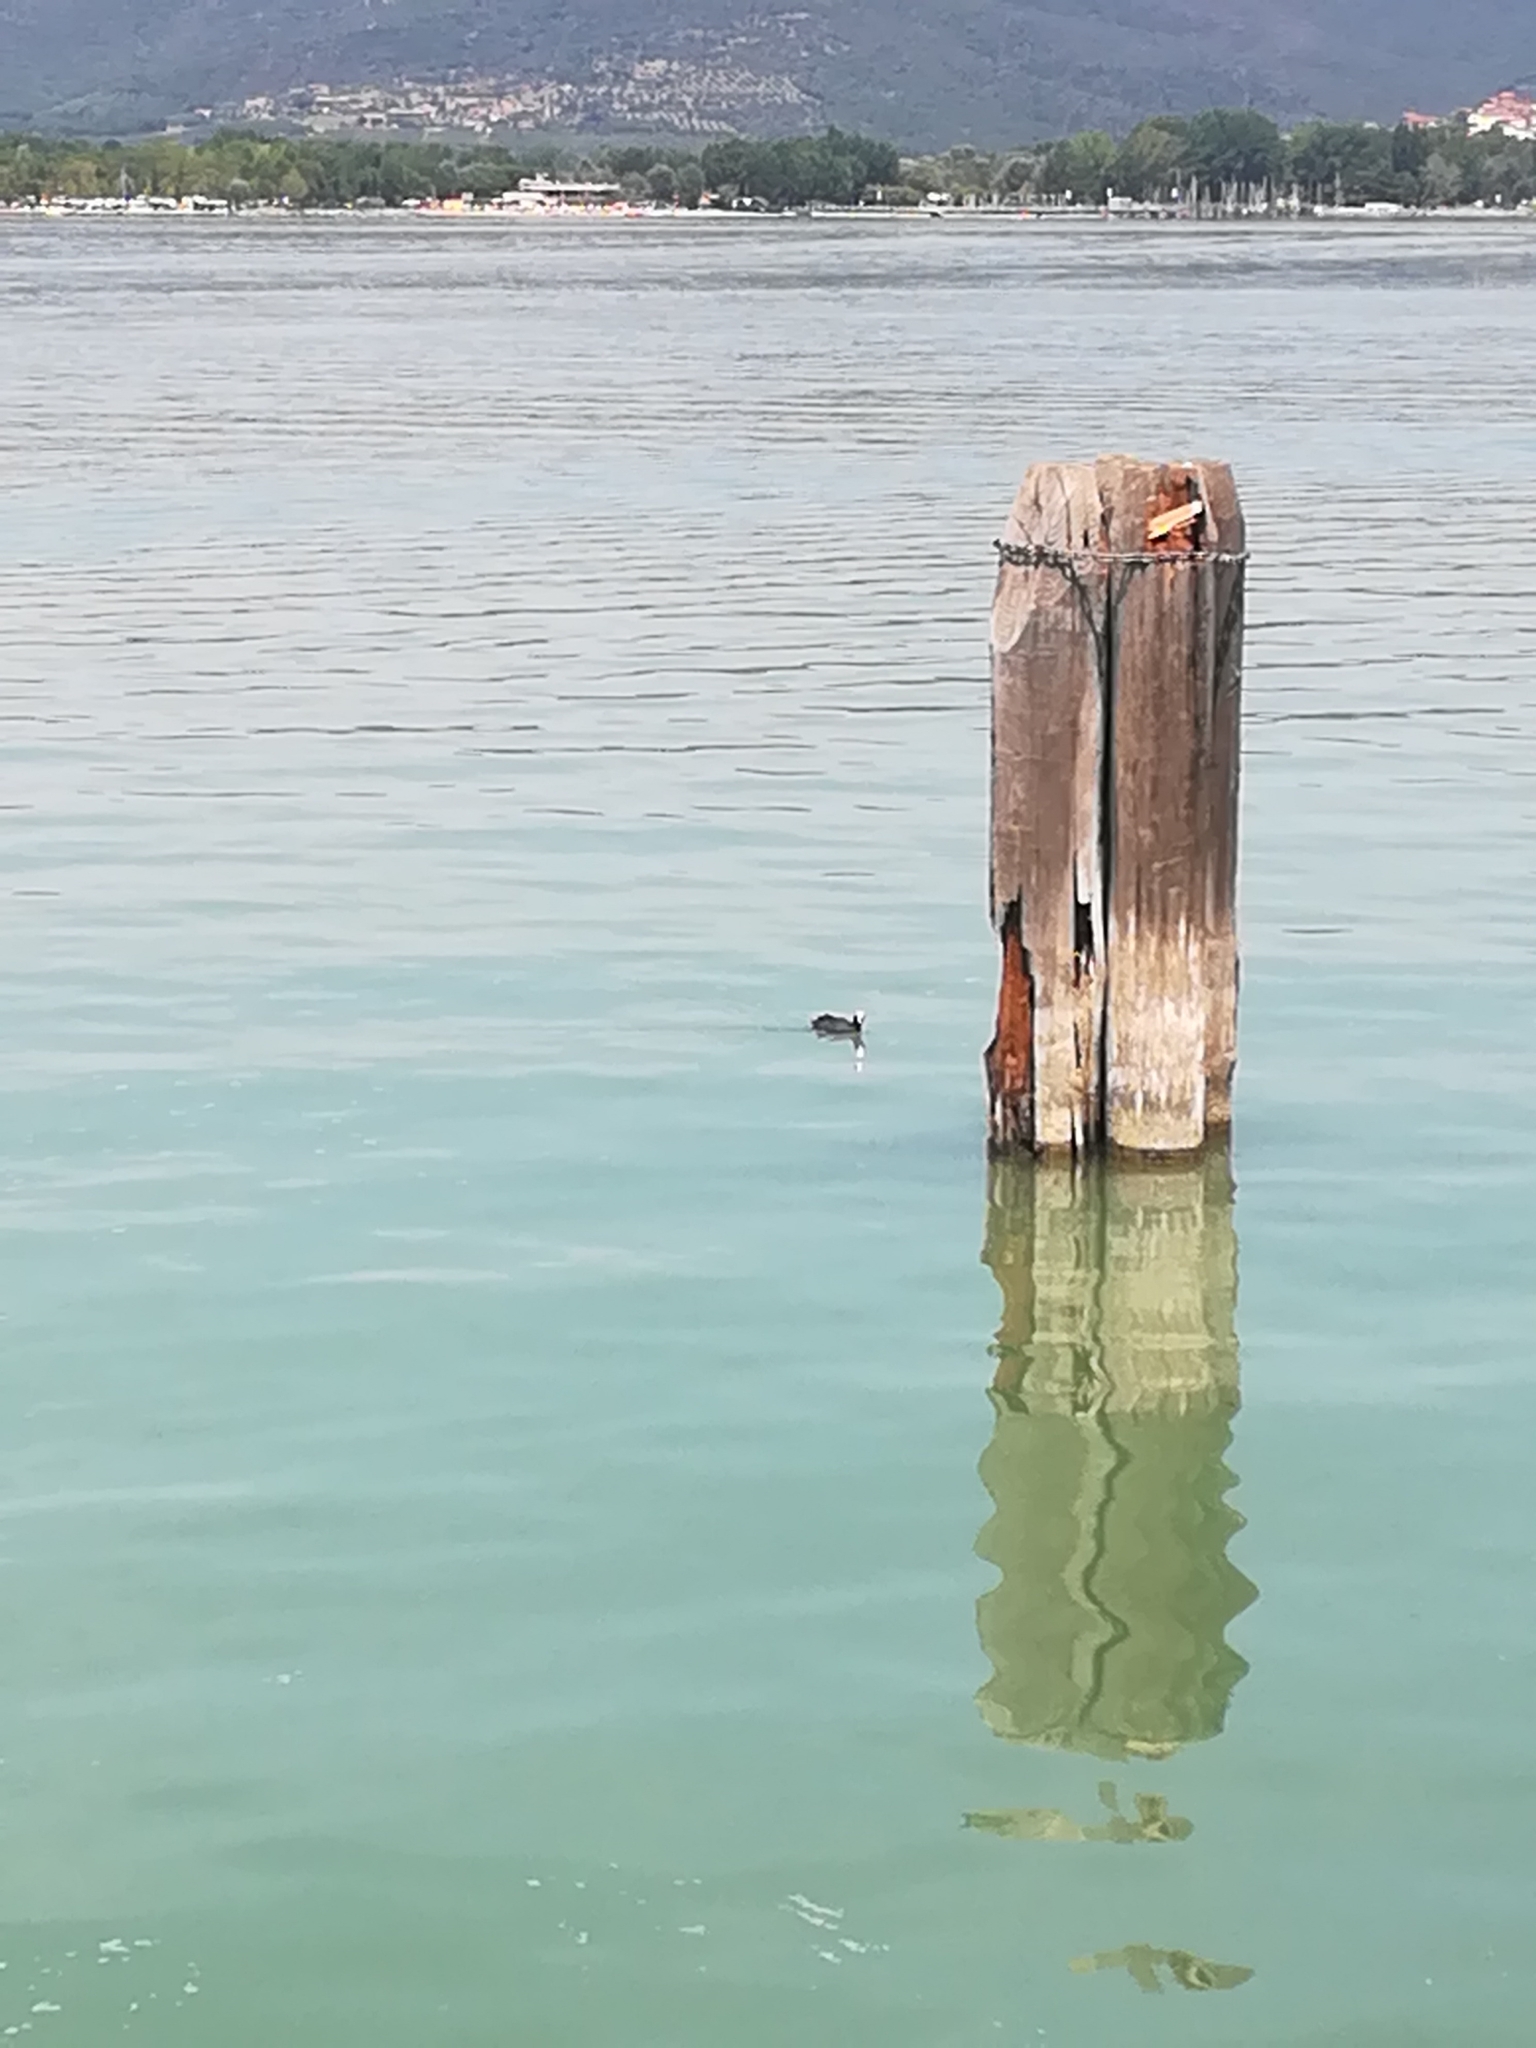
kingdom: Animalia
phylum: Chordata
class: Aves
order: Gruiformes
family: Rallidae
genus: Fulica
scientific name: Fulica atra
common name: Eurasian coot
